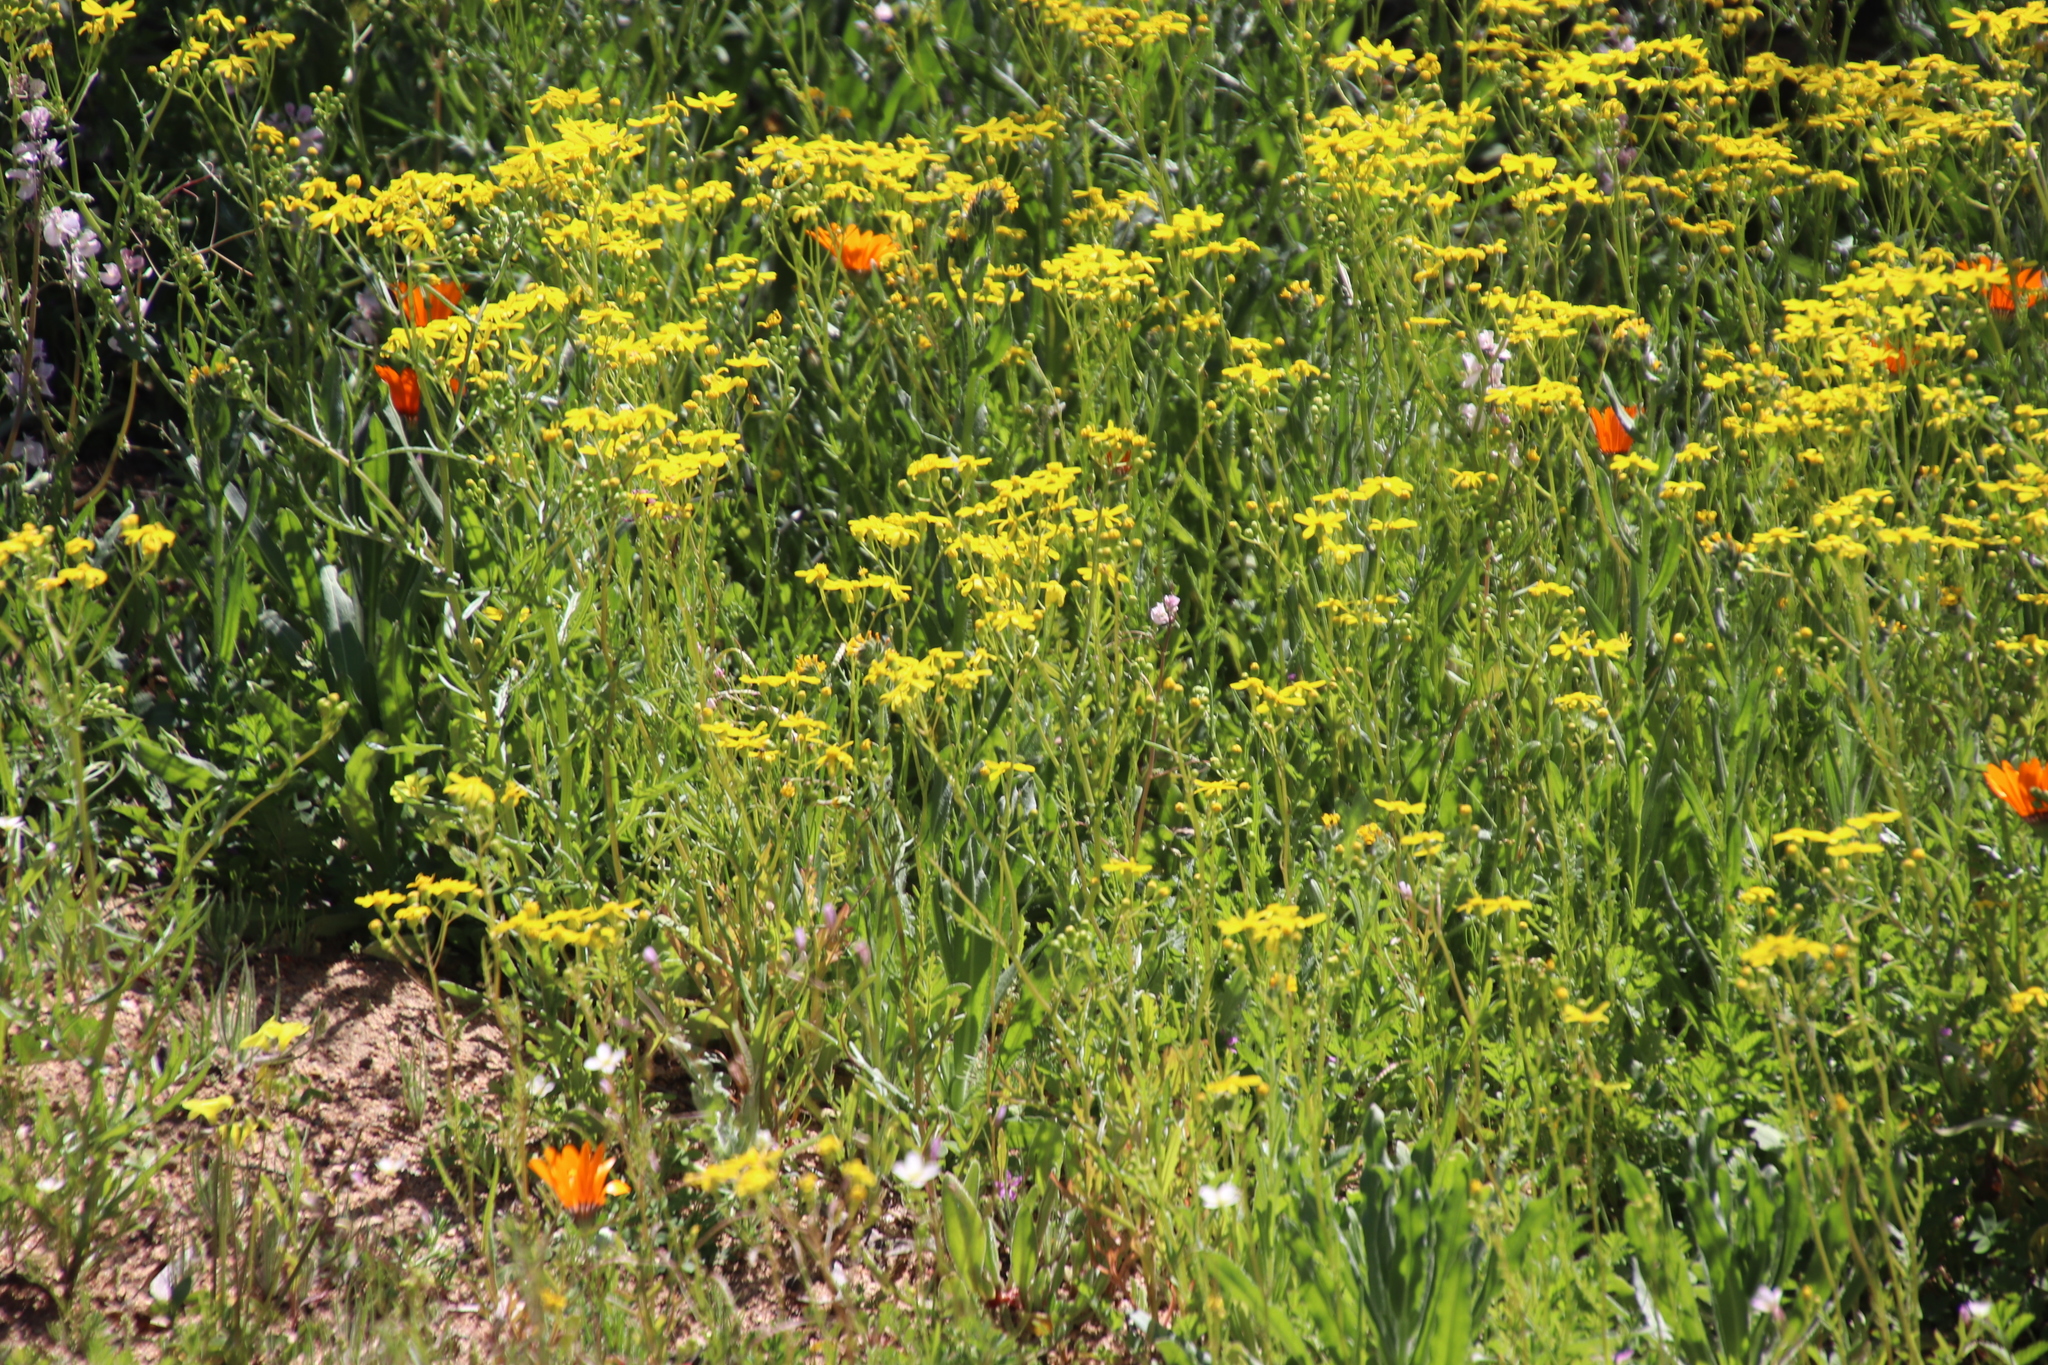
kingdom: Plantae
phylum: Tracheophyta
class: Magnoliopsida
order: Asterales
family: Asteraceae
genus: Senecio
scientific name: Senecio abruptus
